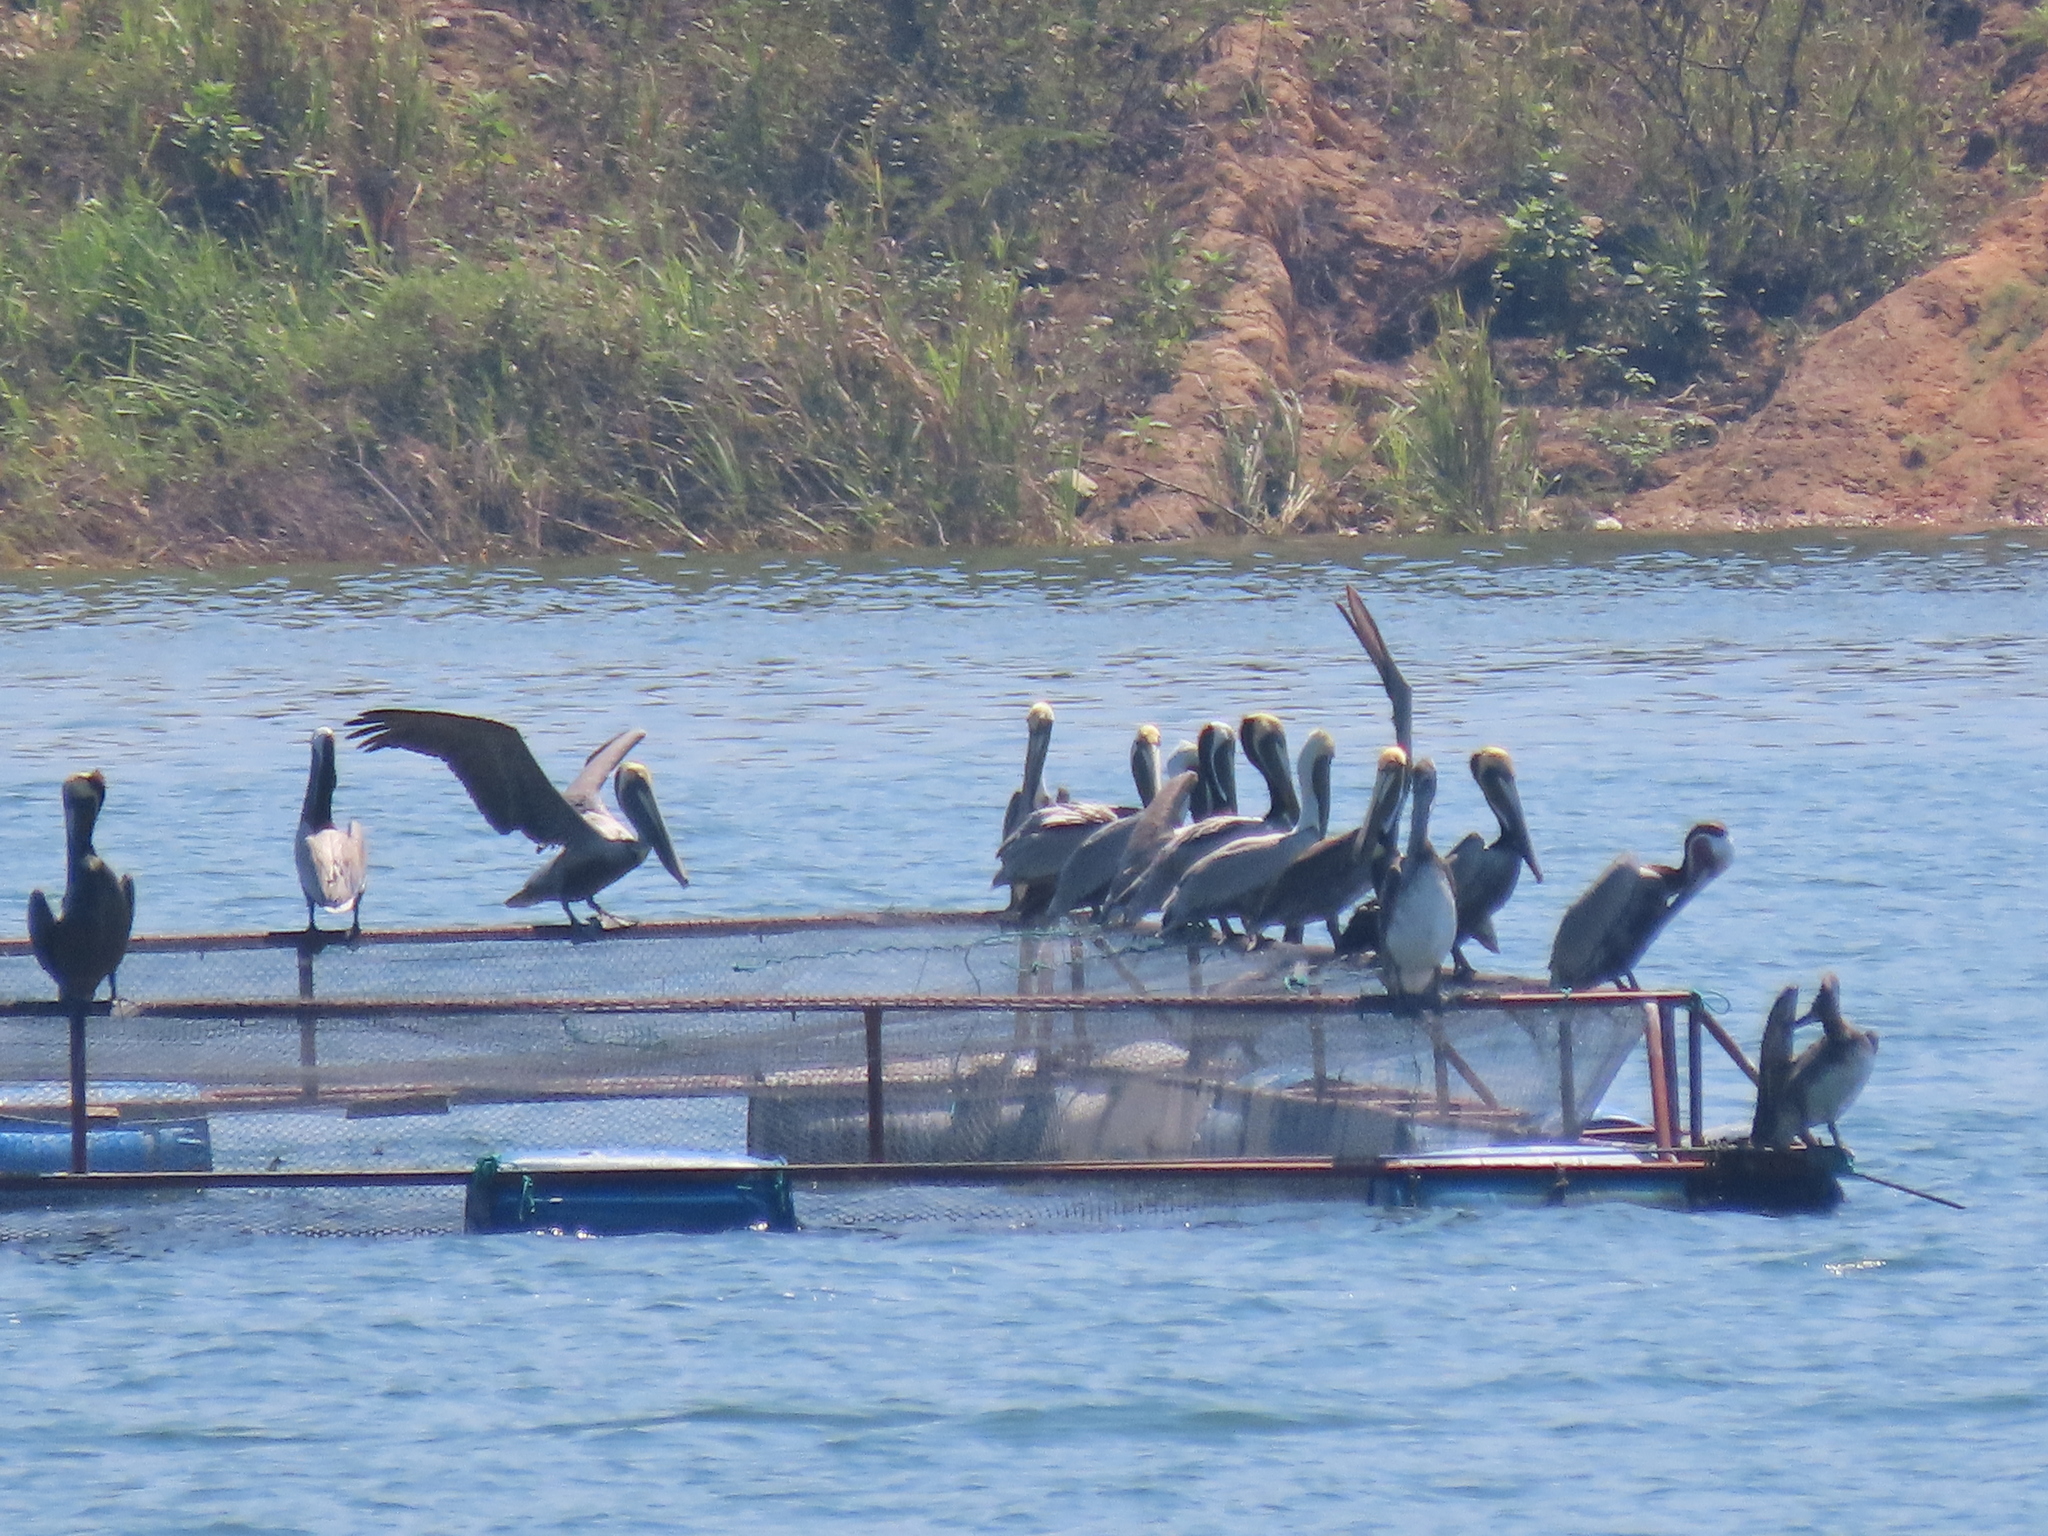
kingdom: Animalia
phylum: Chordata
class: Aves
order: Pelecaniformes
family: Pelecanidae
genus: Pelecanus
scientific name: Pelecanus occidentalis
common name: Brown pelican
